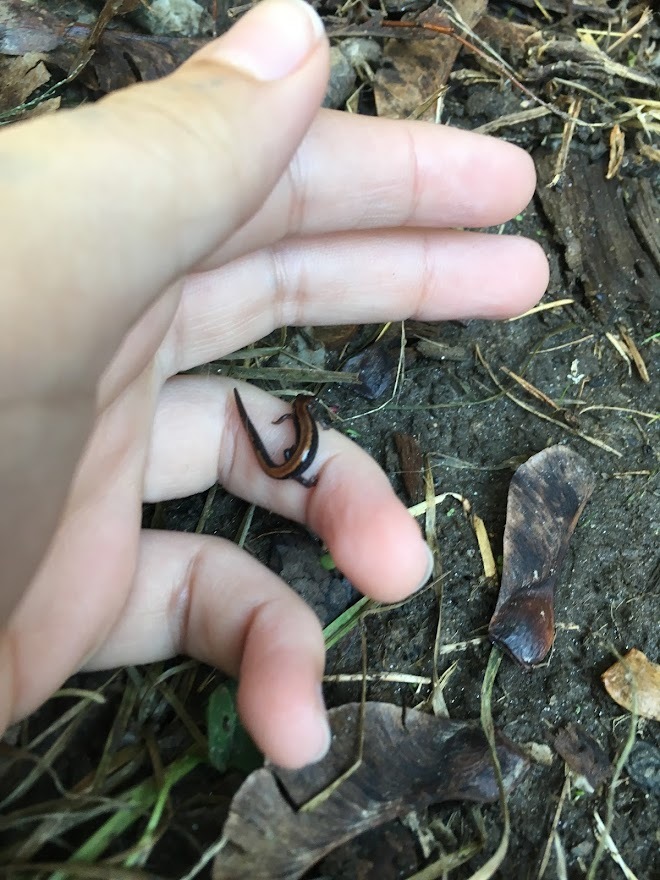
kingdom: Animalia
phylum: Chordata
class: Amphibia
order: Caudata
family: Plethodontidae
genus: Plethodon
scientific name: Plethodon cinereus
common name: Redback salamander
